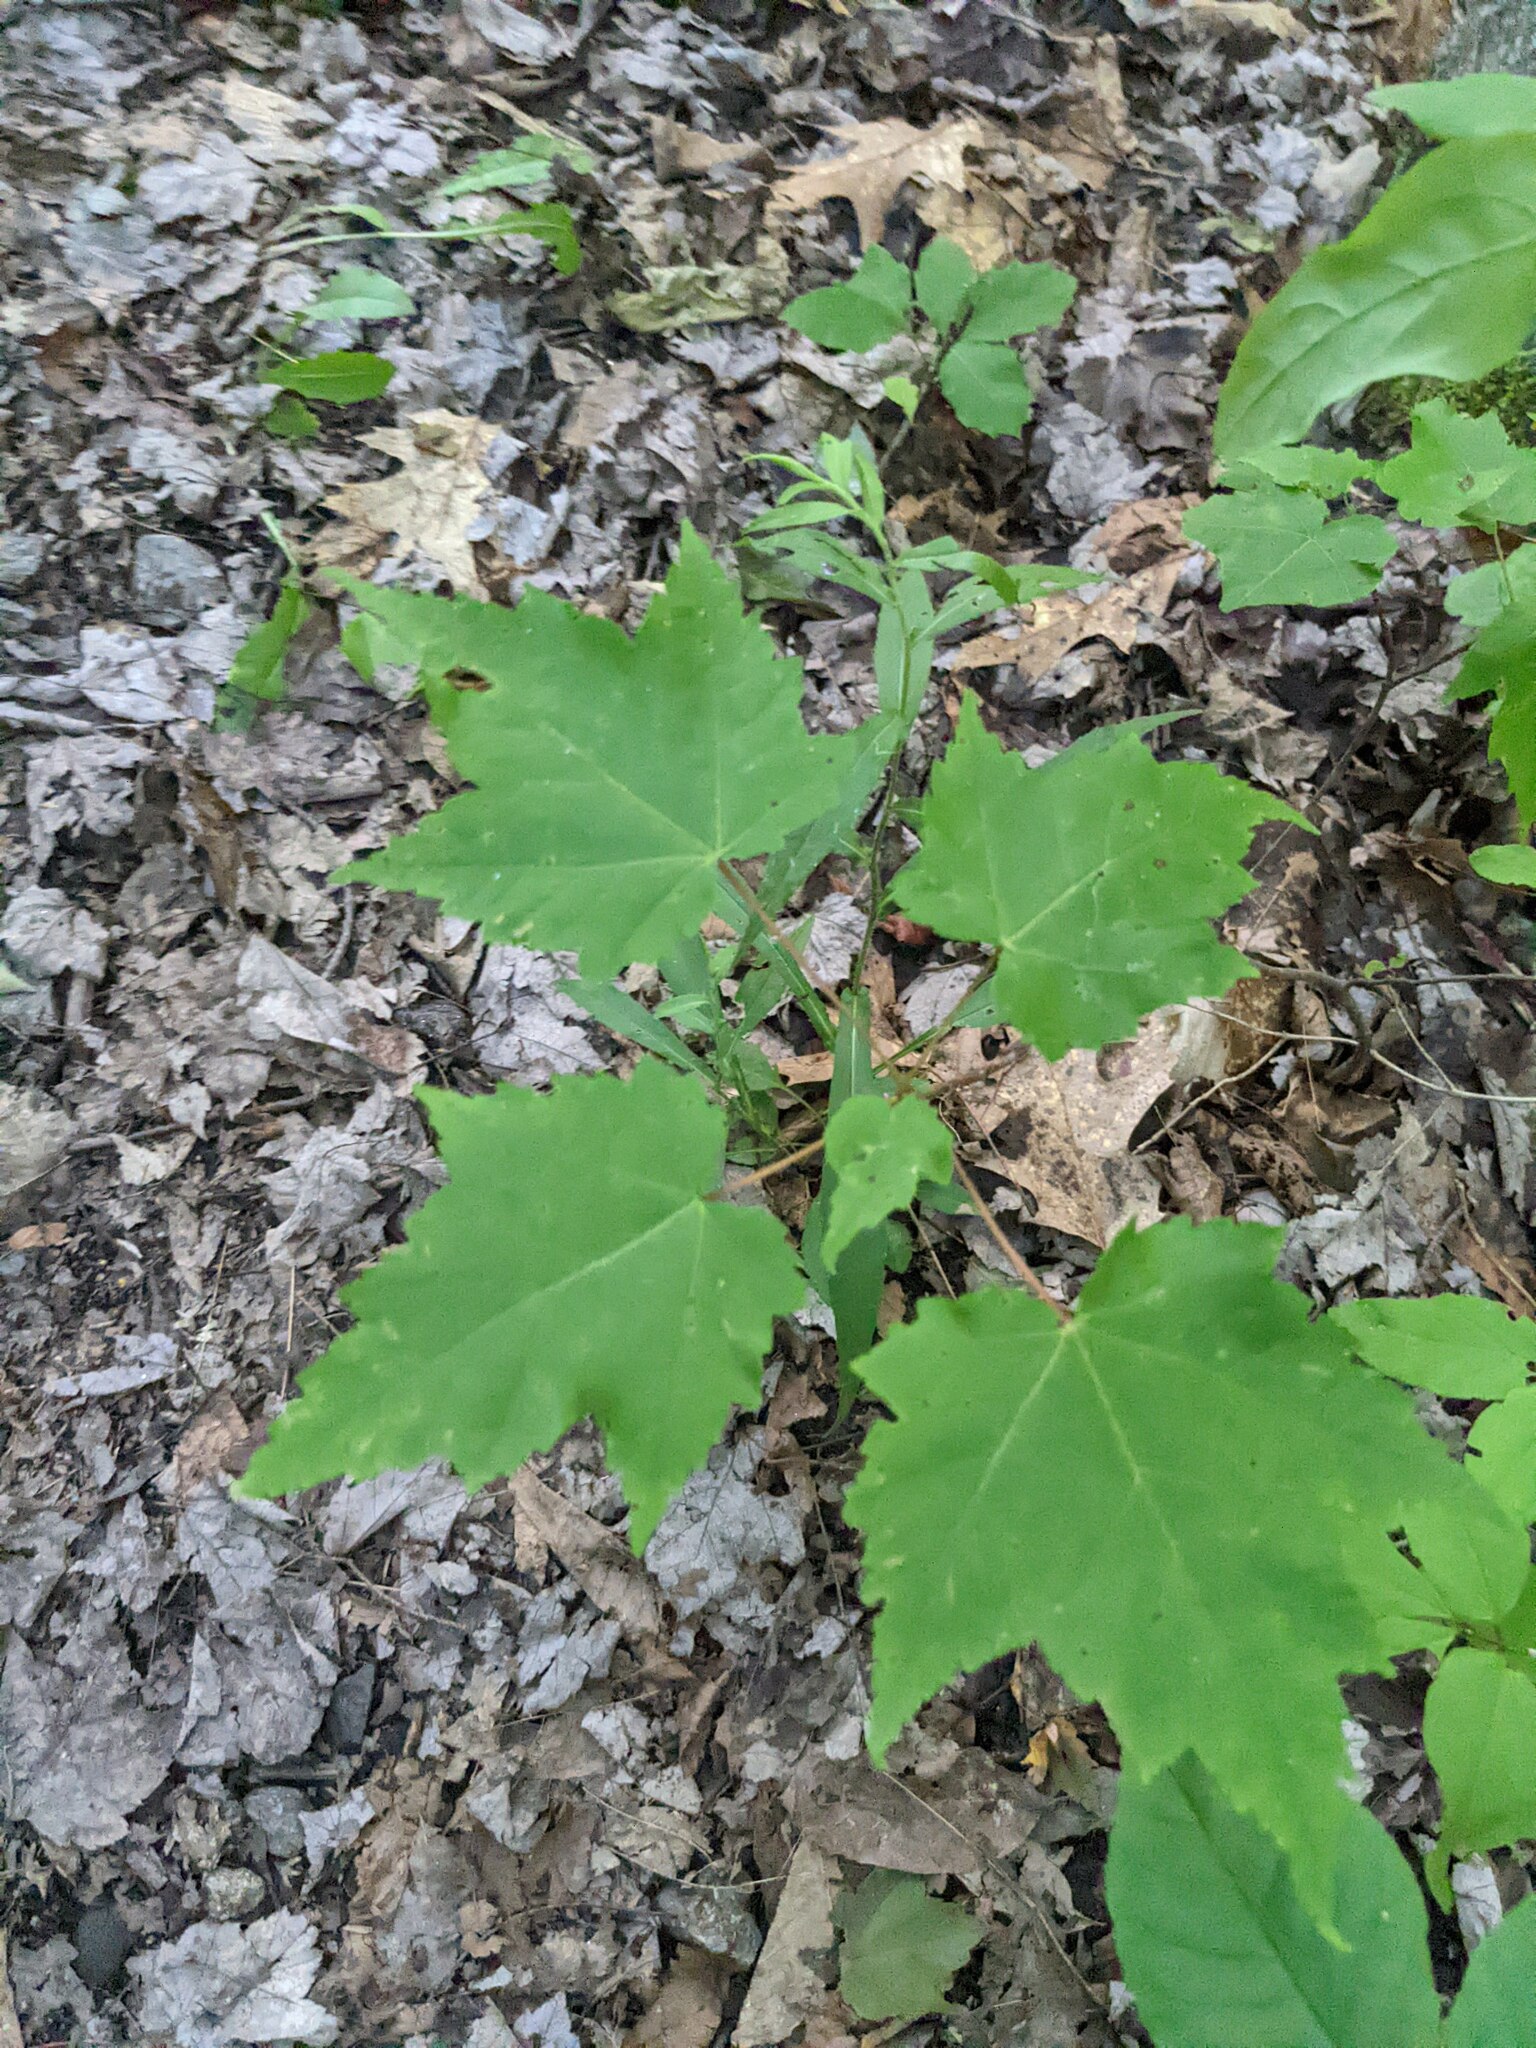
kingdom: Plantae
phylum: Tracheophyta
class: Magnoliopsida
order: Sapindales
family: Sapindaceae
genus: Acer
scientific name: Acer rubrum
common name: Red maple
